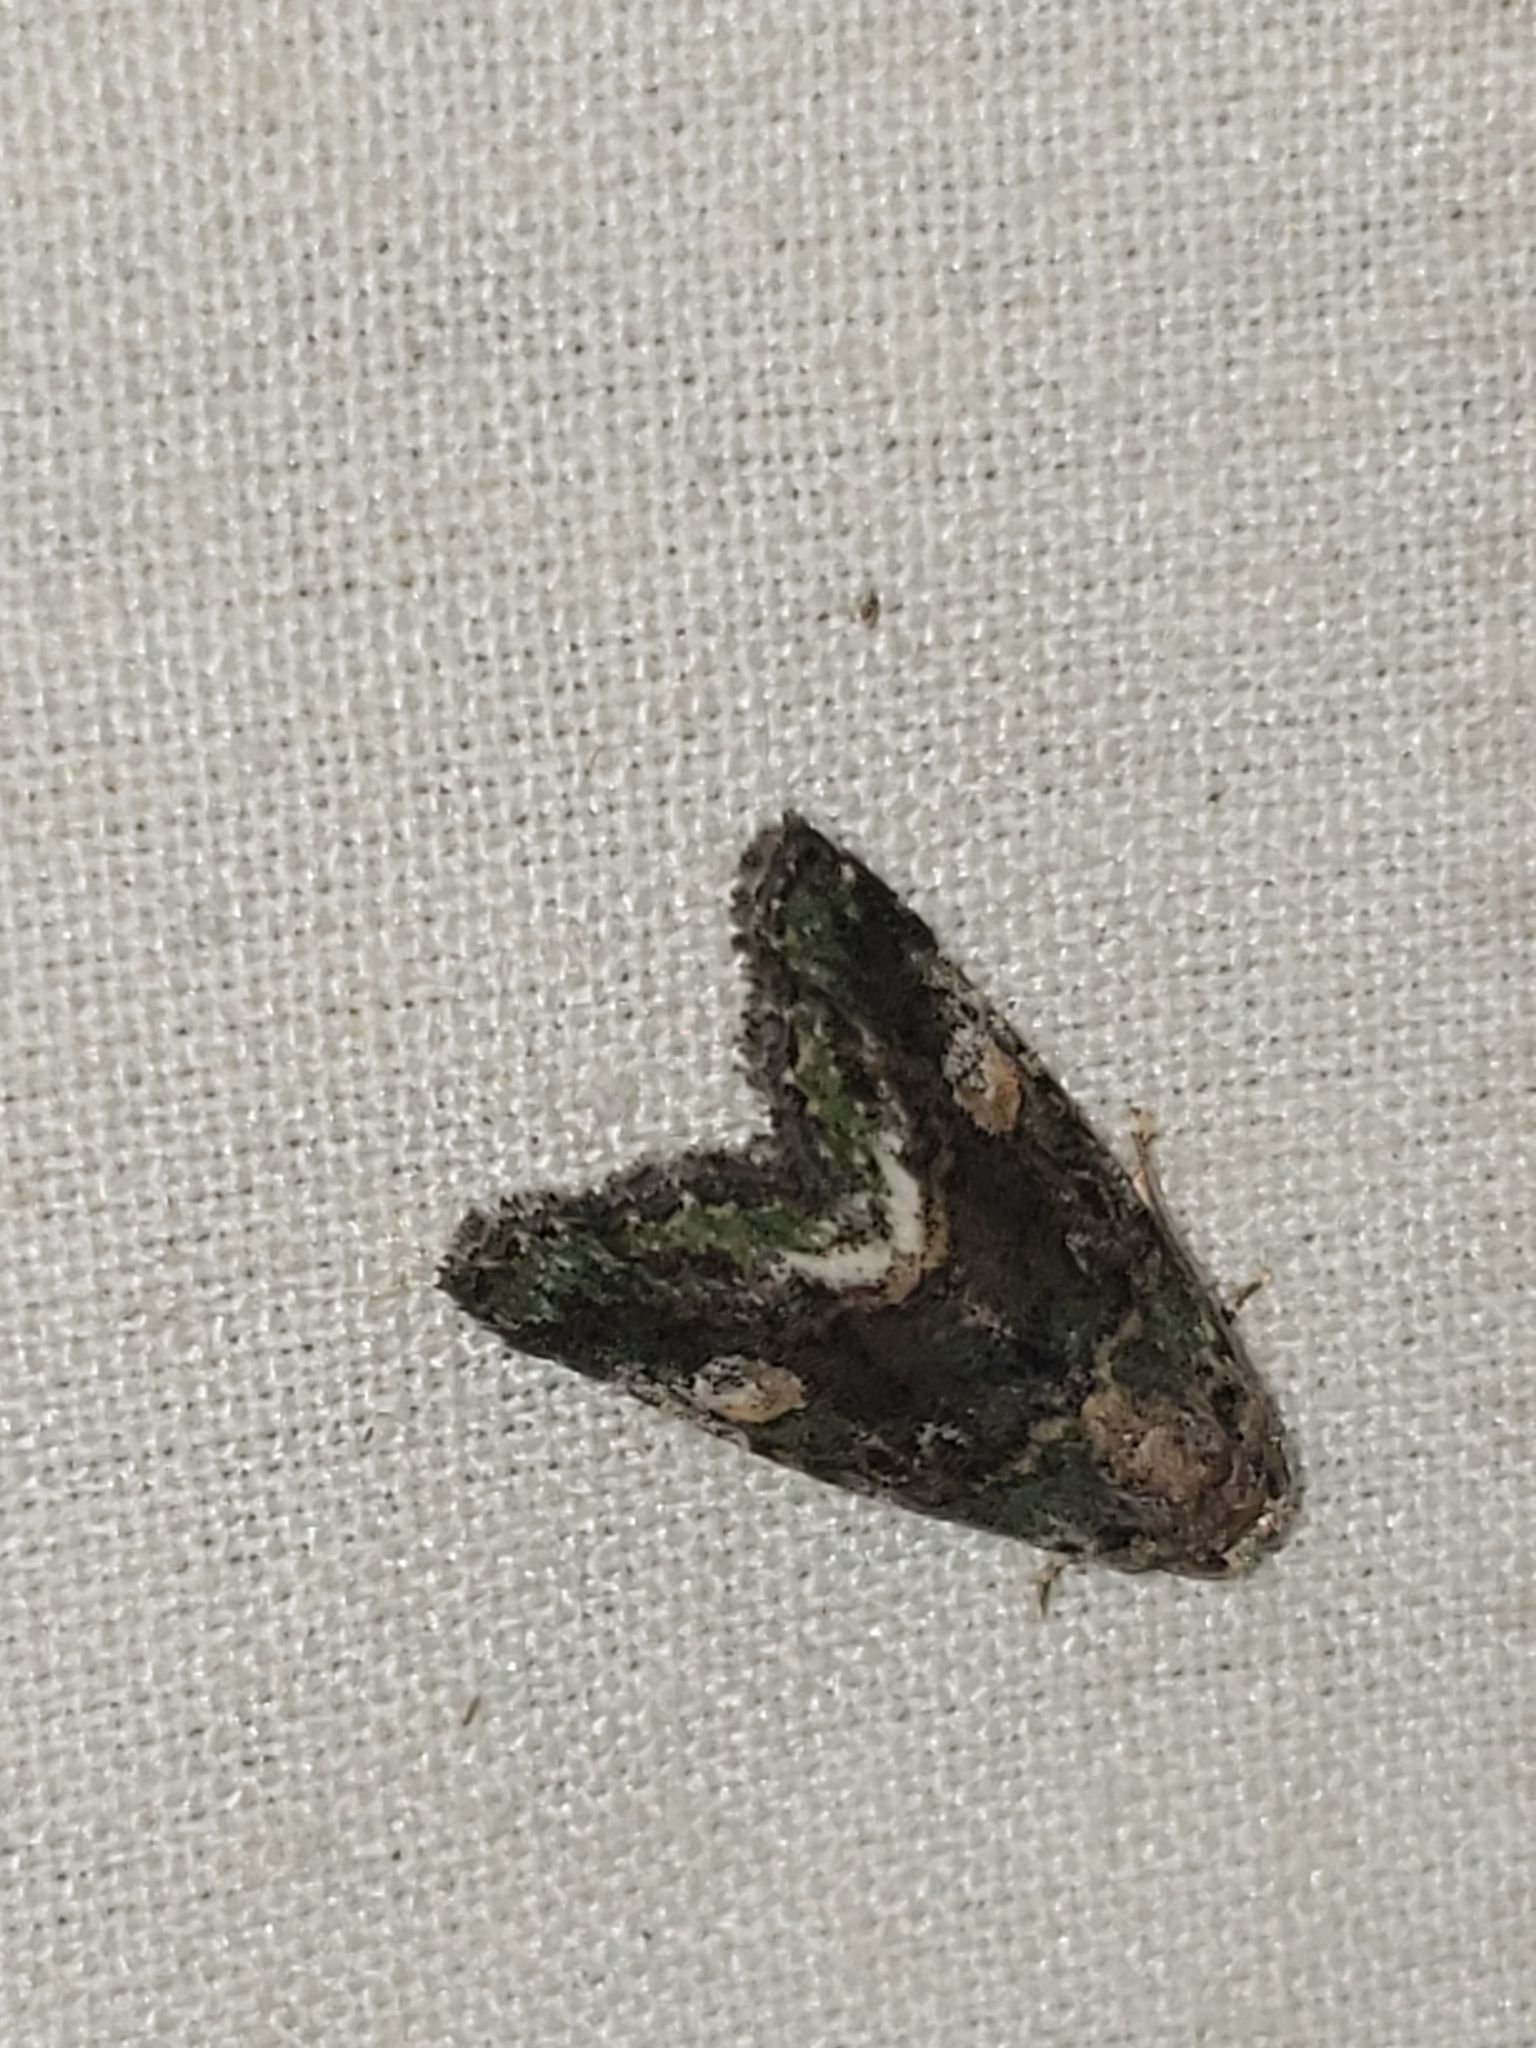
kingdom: Animalia
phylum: Arthropoda
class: Insecta
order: Lepidoptera
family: Noctuidae
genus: Lithacodia
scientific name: Lithacodia musta
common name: Small mossy glyph
